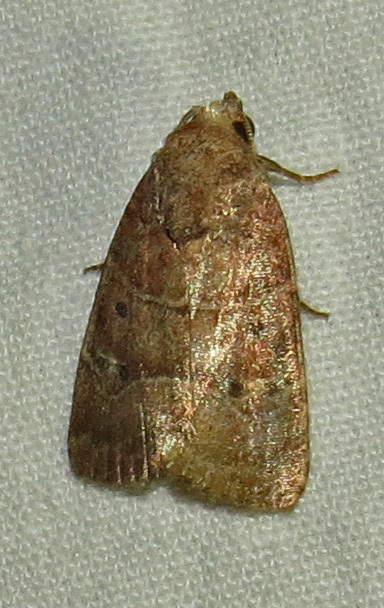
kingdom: Animalia
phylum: Arthropoda
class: Insecta
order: Lepidoptera
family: Noctuidae
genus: Elaphria
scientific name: Elaphria grata
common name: Grateful midget moth
